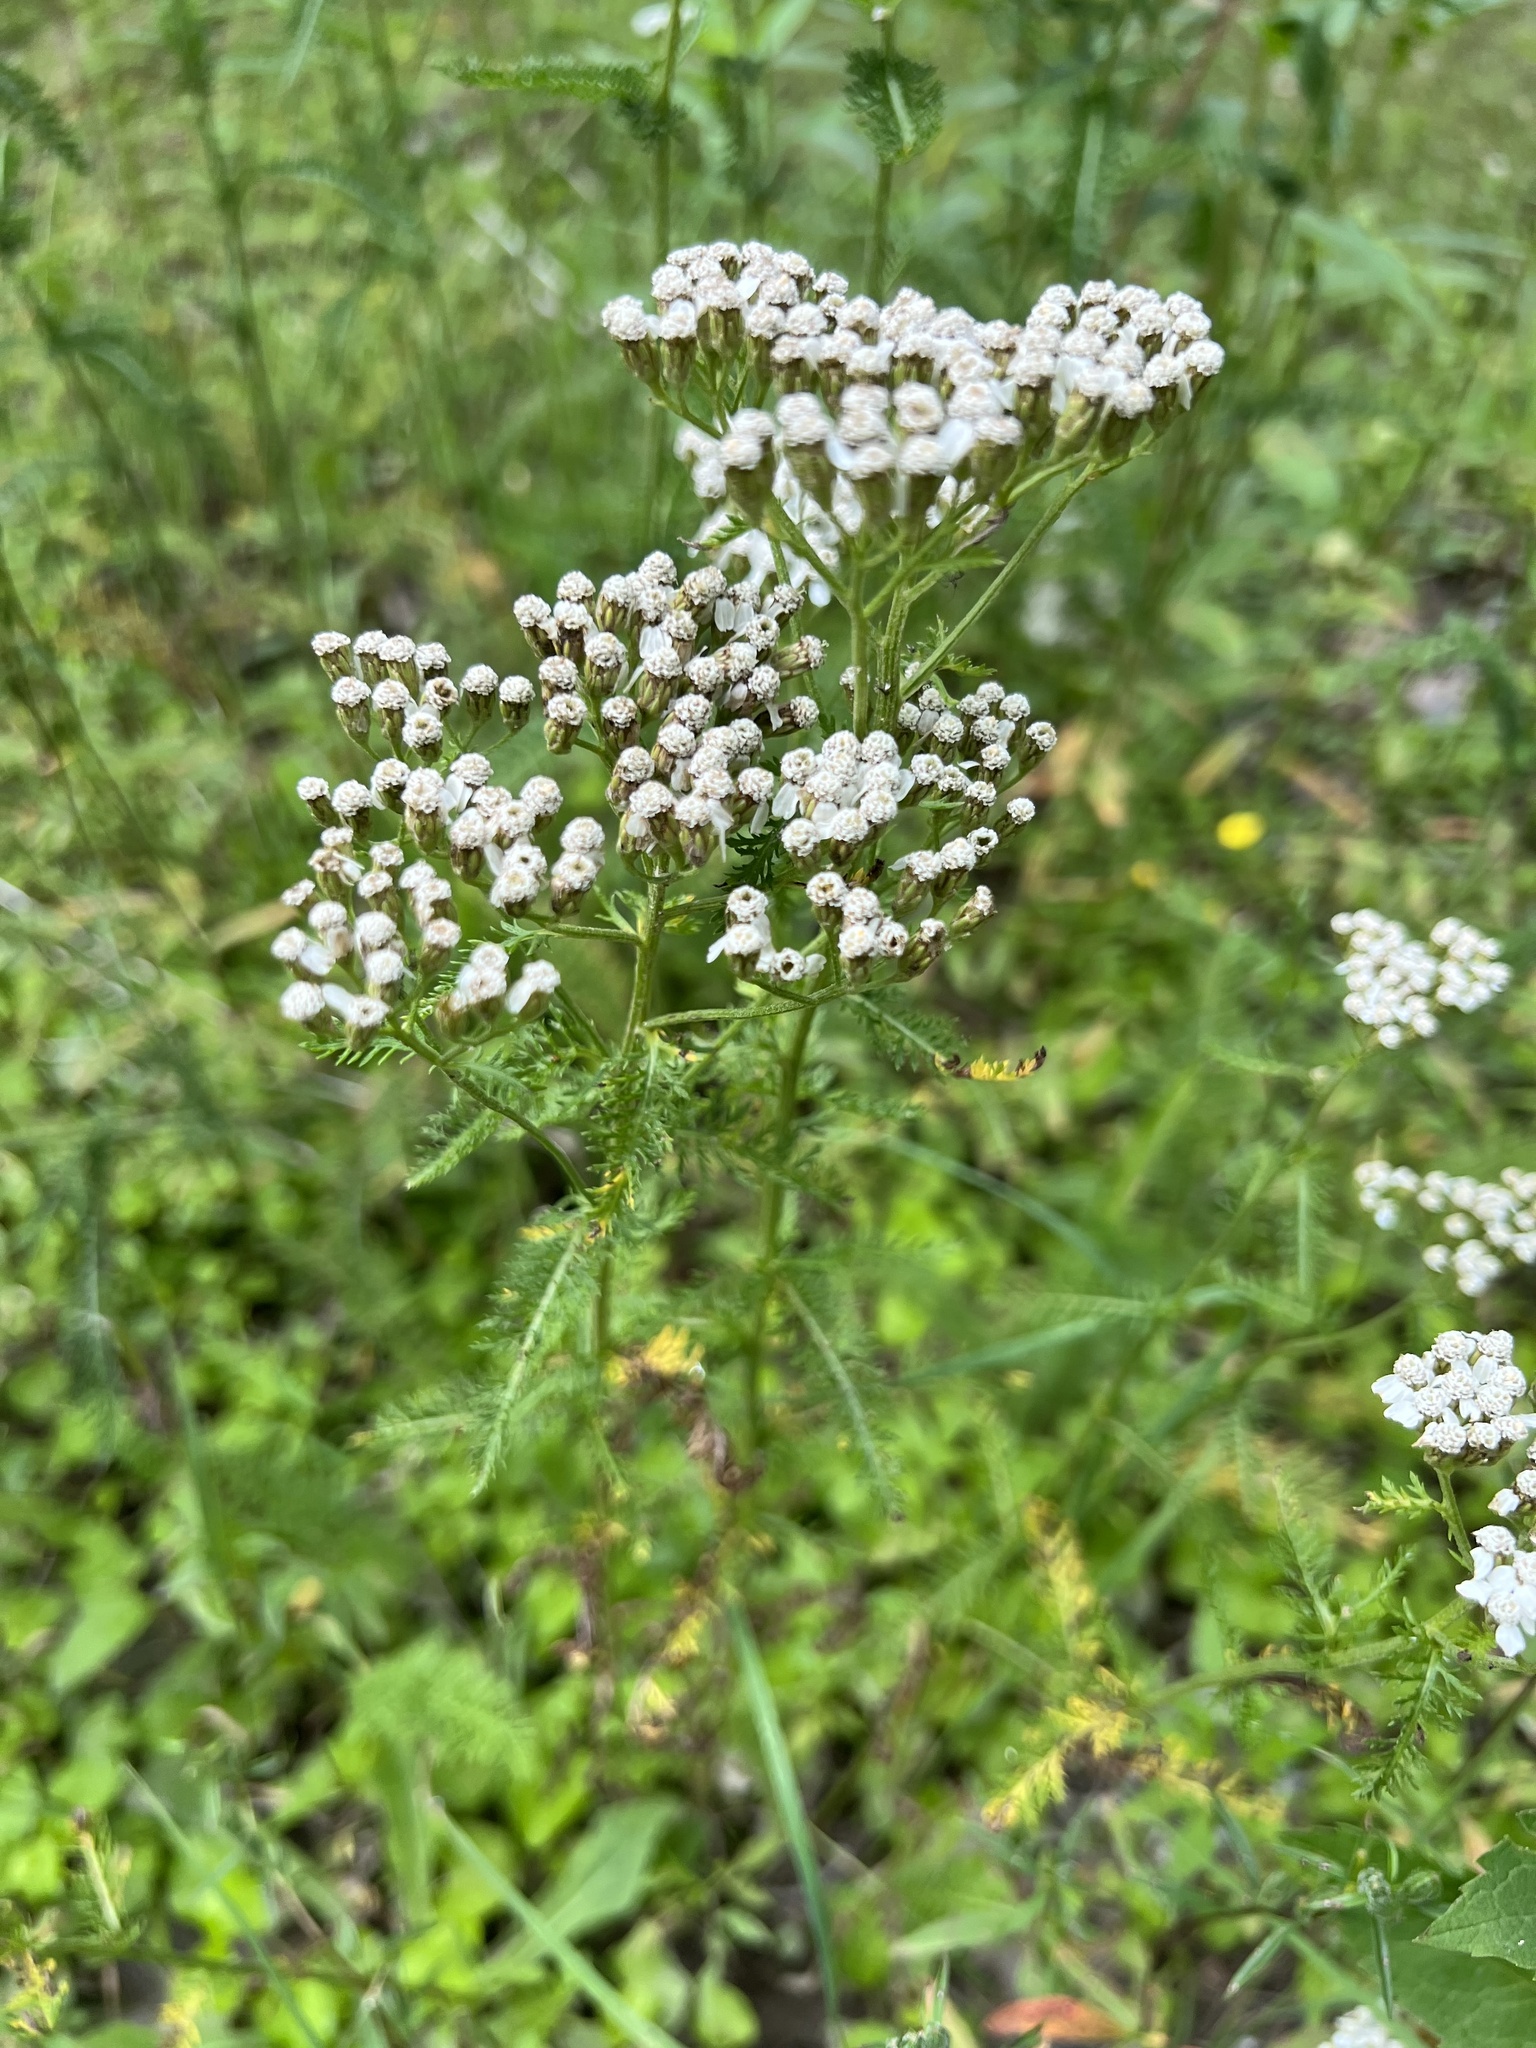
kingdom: Plantae
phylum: Tracheophyta
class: Magnoliopsida
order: Asterales
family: Asteraceae
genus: Achillea
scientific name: Achillea millefolium
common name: Yarrow
